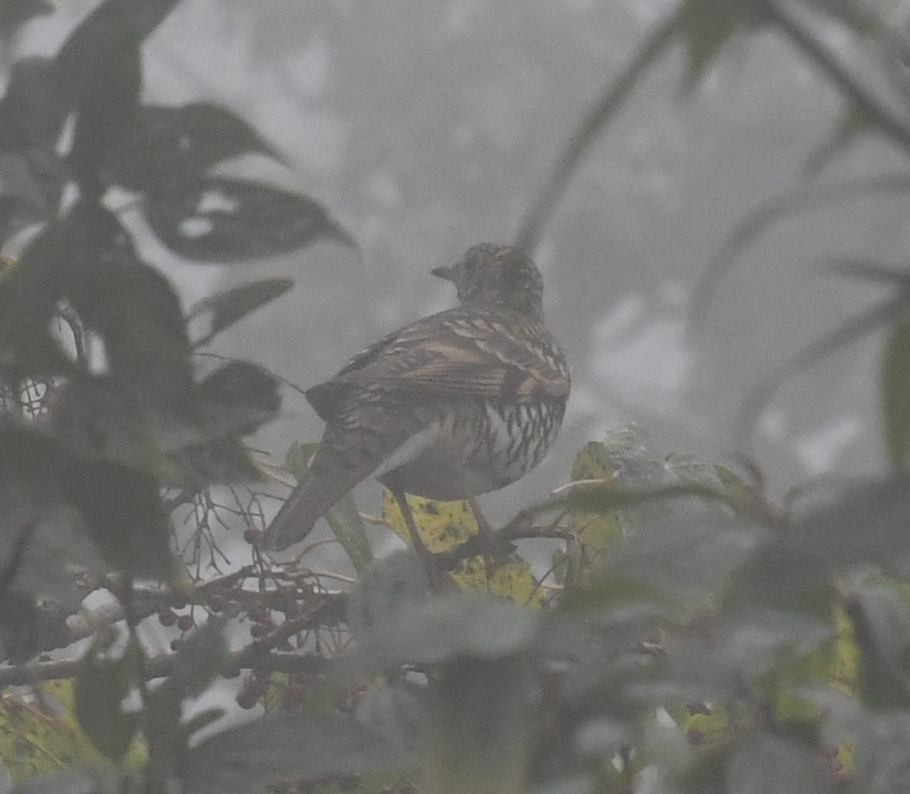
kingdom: Animalia
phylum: Chordata
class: Aves
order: Passeriformes
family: Turdidae
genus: Zoothera
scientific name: Zoothera aurea
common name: White's thrush
